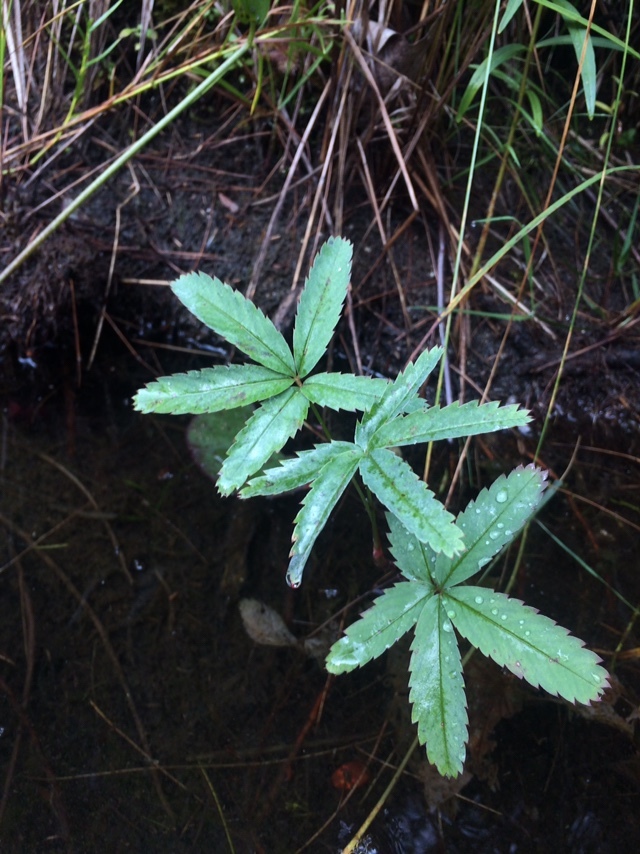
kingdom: Plantae
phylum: Tracheophyta
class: Magnoliopsida
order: Rosales
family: Rosaceae
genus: Comarum
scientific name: Comarum palustre
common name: Marsh cinquefoil
